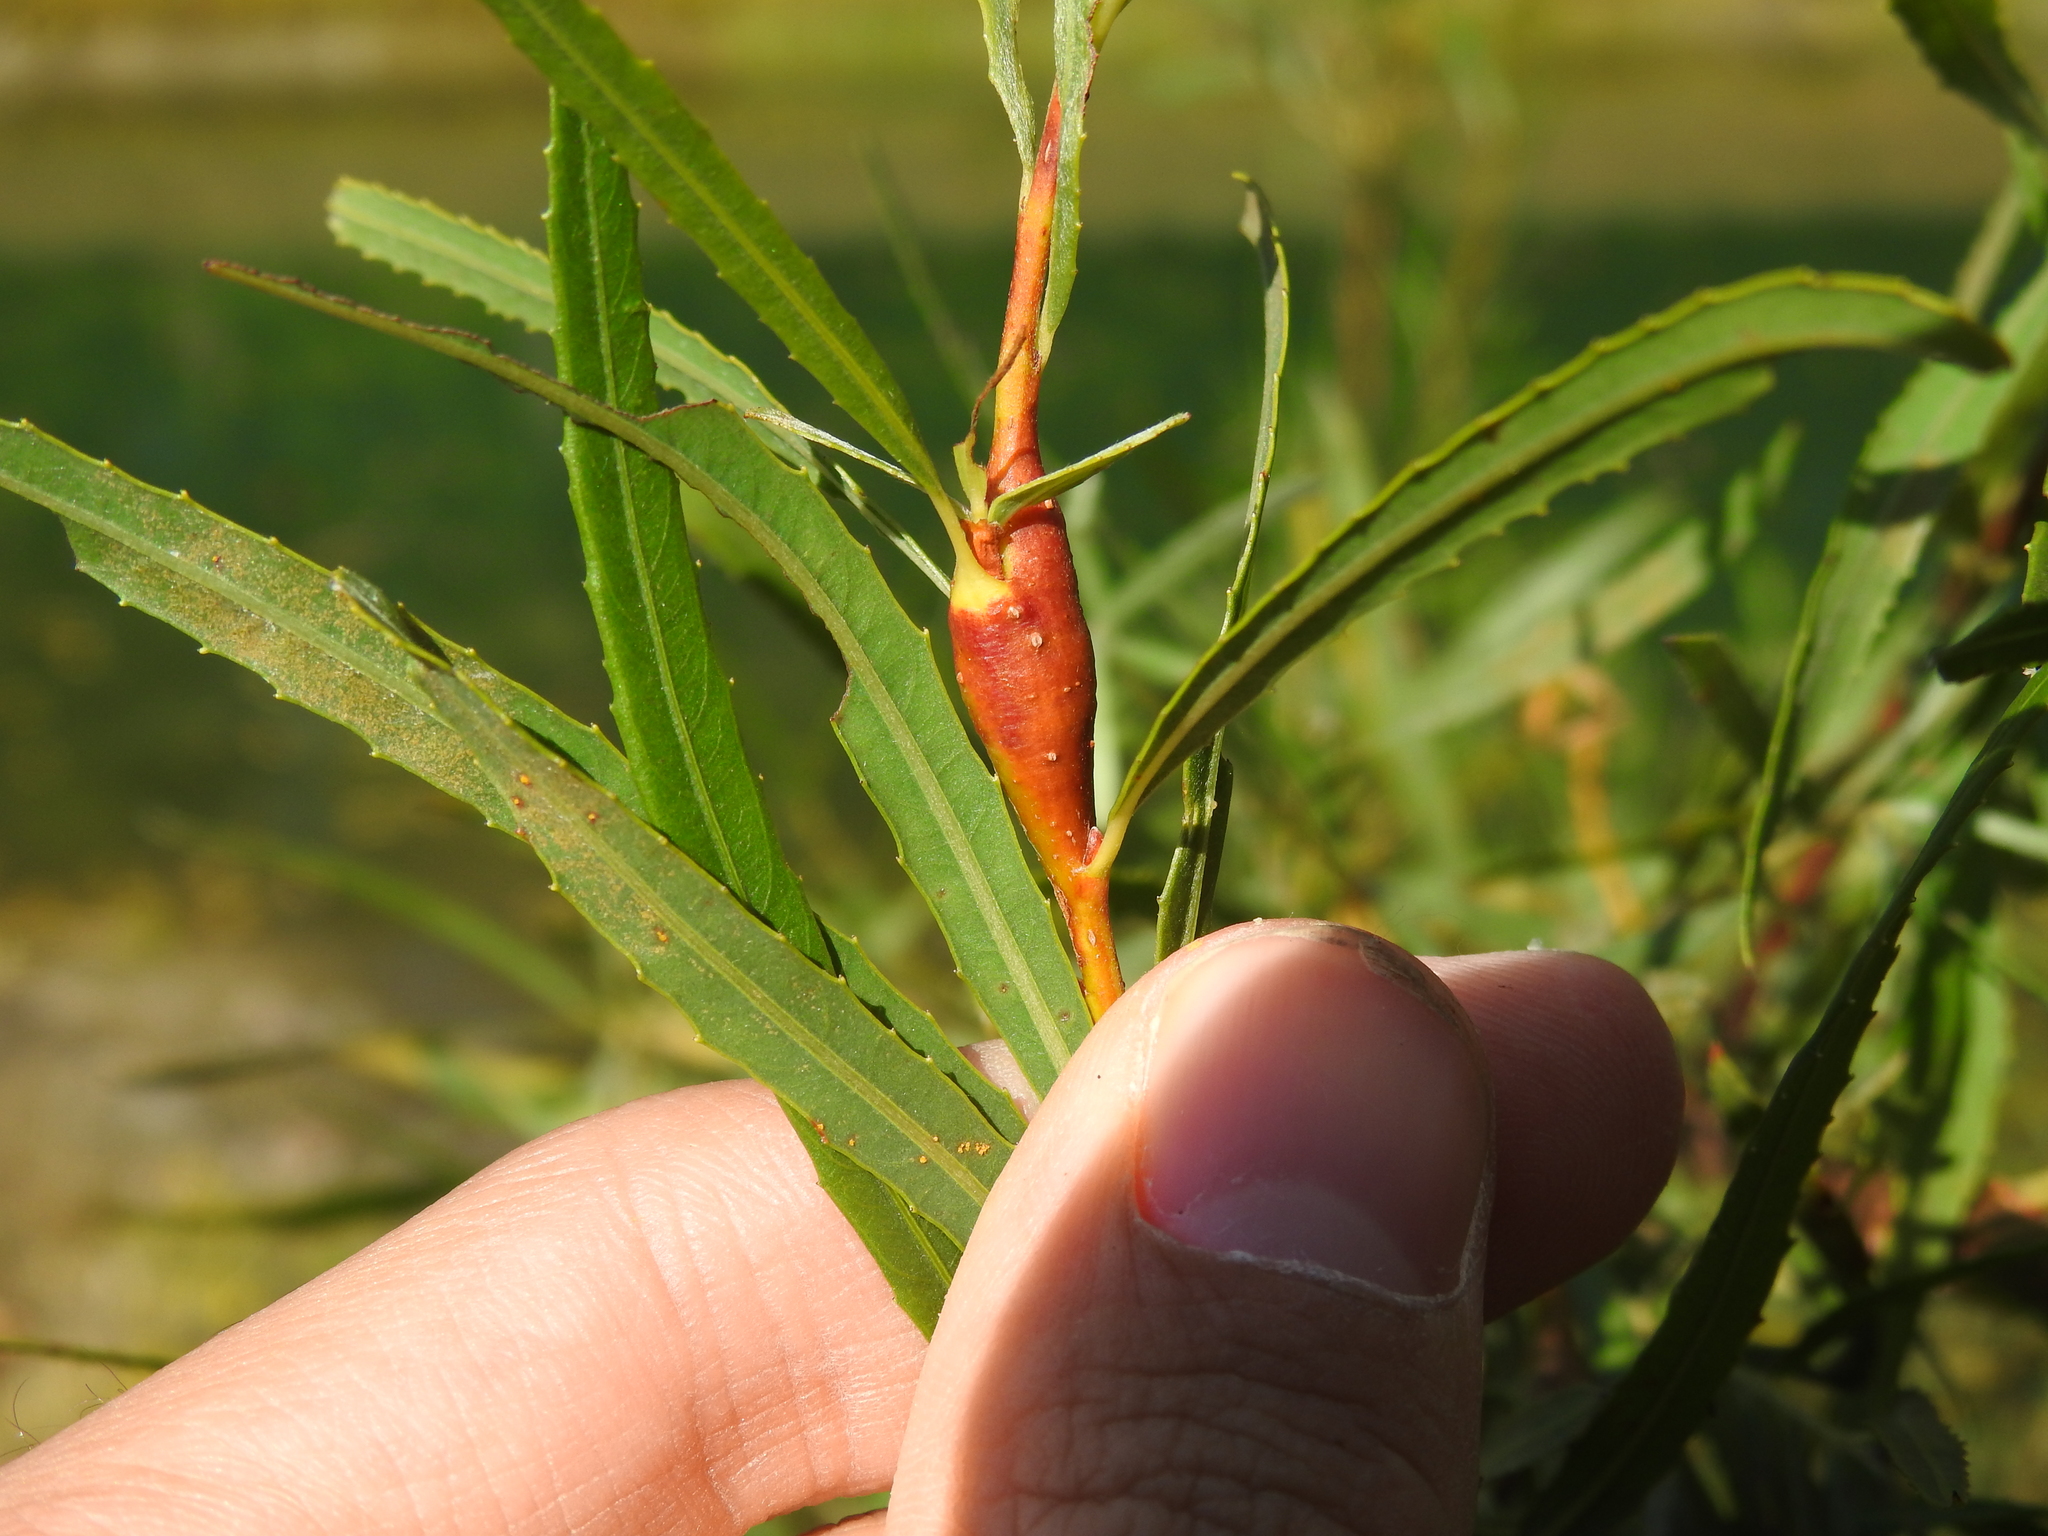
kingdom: Animalia
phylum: Arthropoda
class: Insecta
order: Diptera
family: Cecidomyiidae
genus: Thecodiplosis
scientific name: Thecodiplosis pinirigidae
